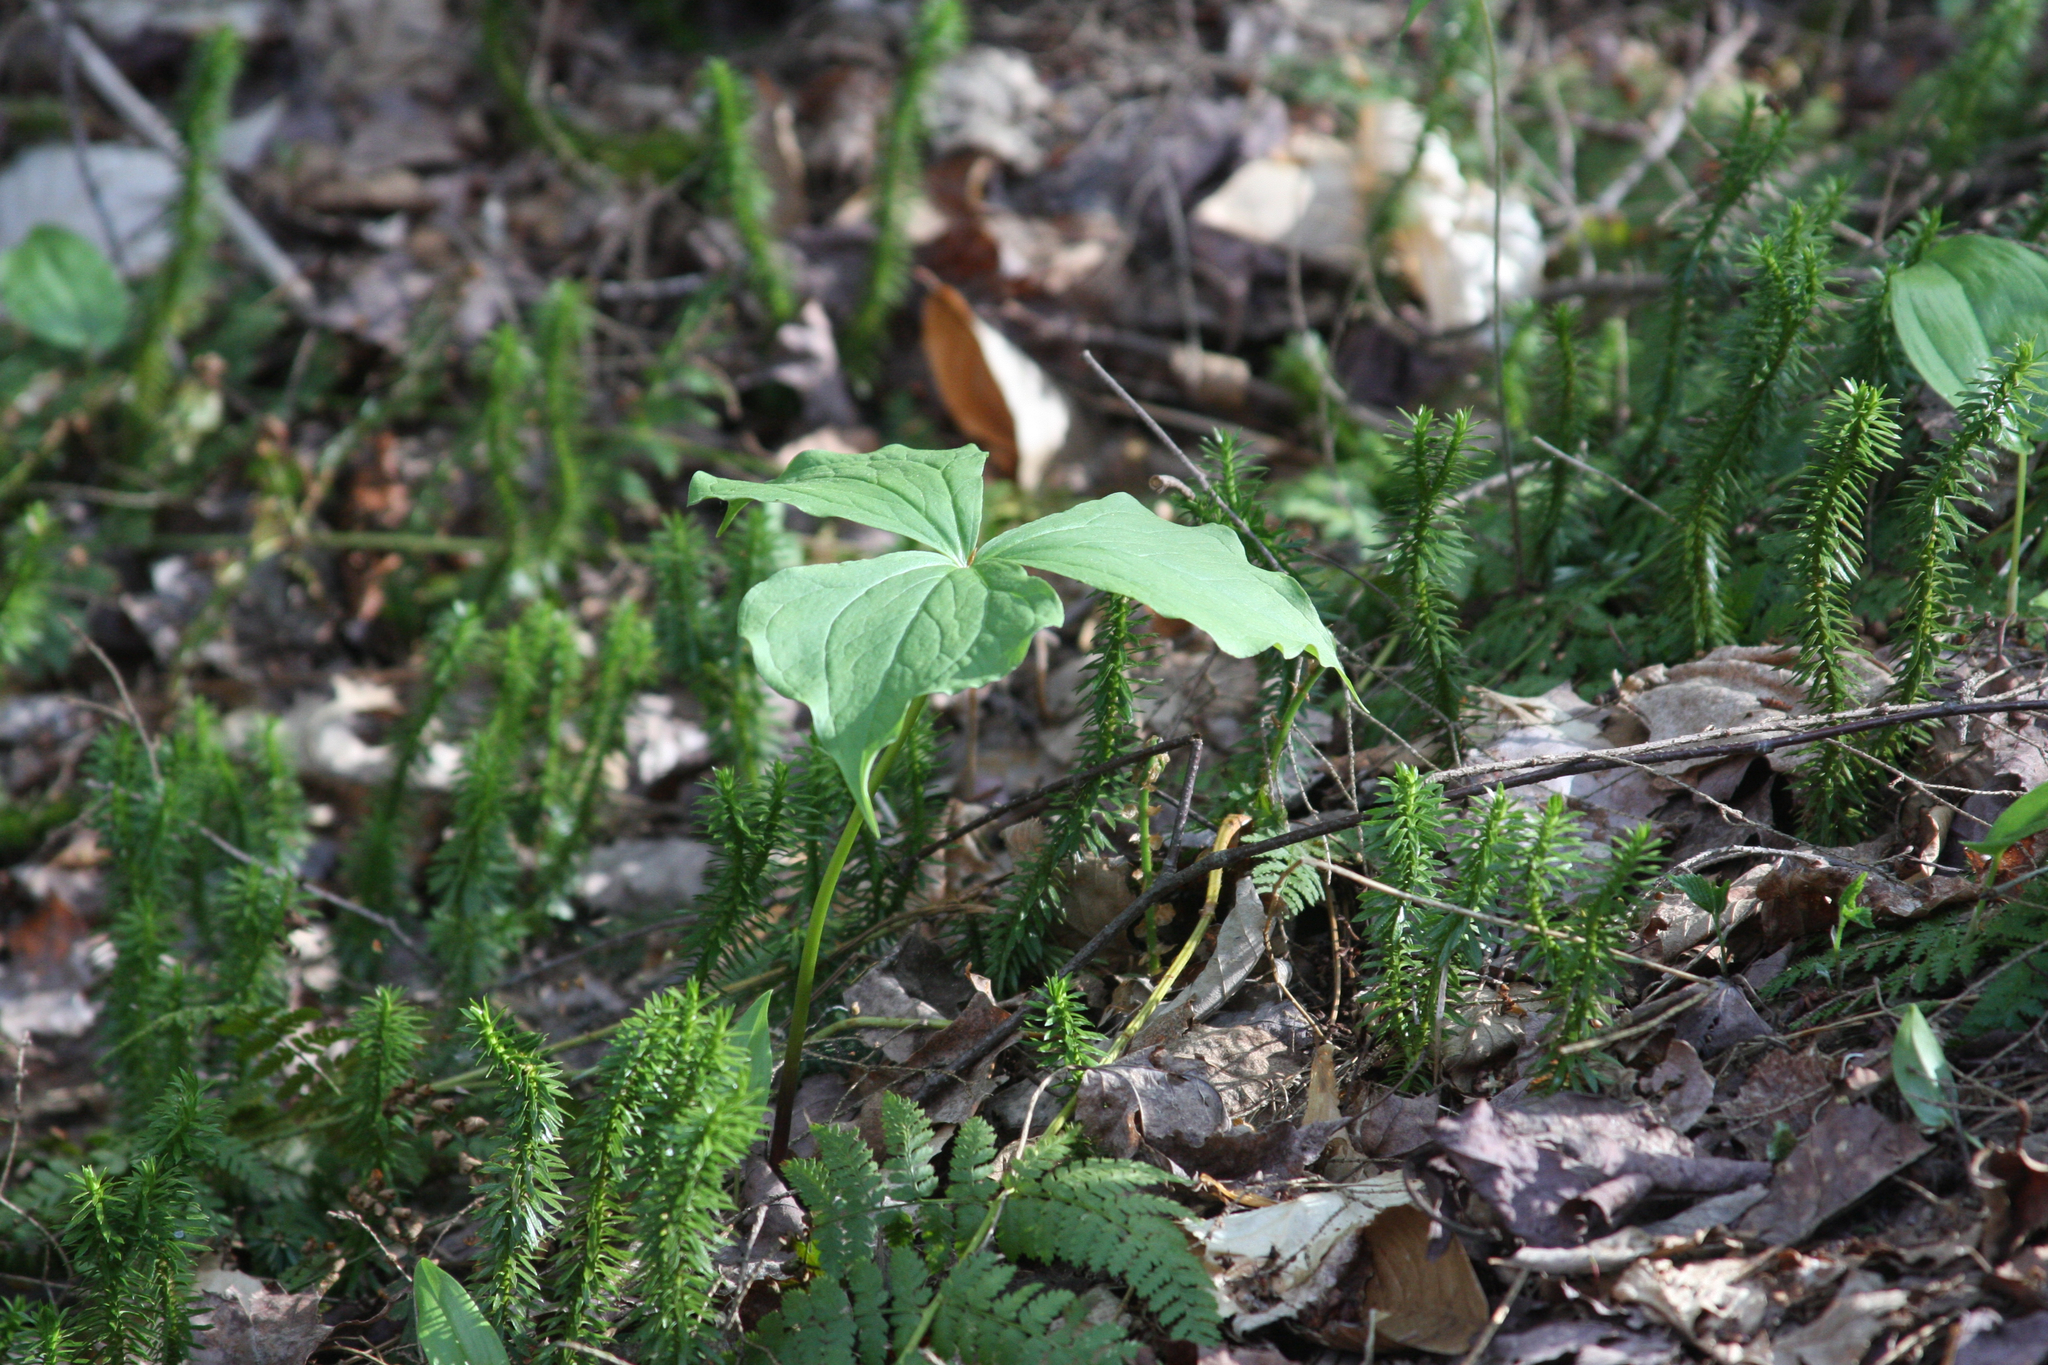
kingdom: Plantae
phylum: Tracheophyta
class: Lycopodiopsida
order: Lycopodiales
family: Lycopodiaceae
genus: Spinulum
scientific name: Spinulum annotinum
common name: Interrupted club-moss
